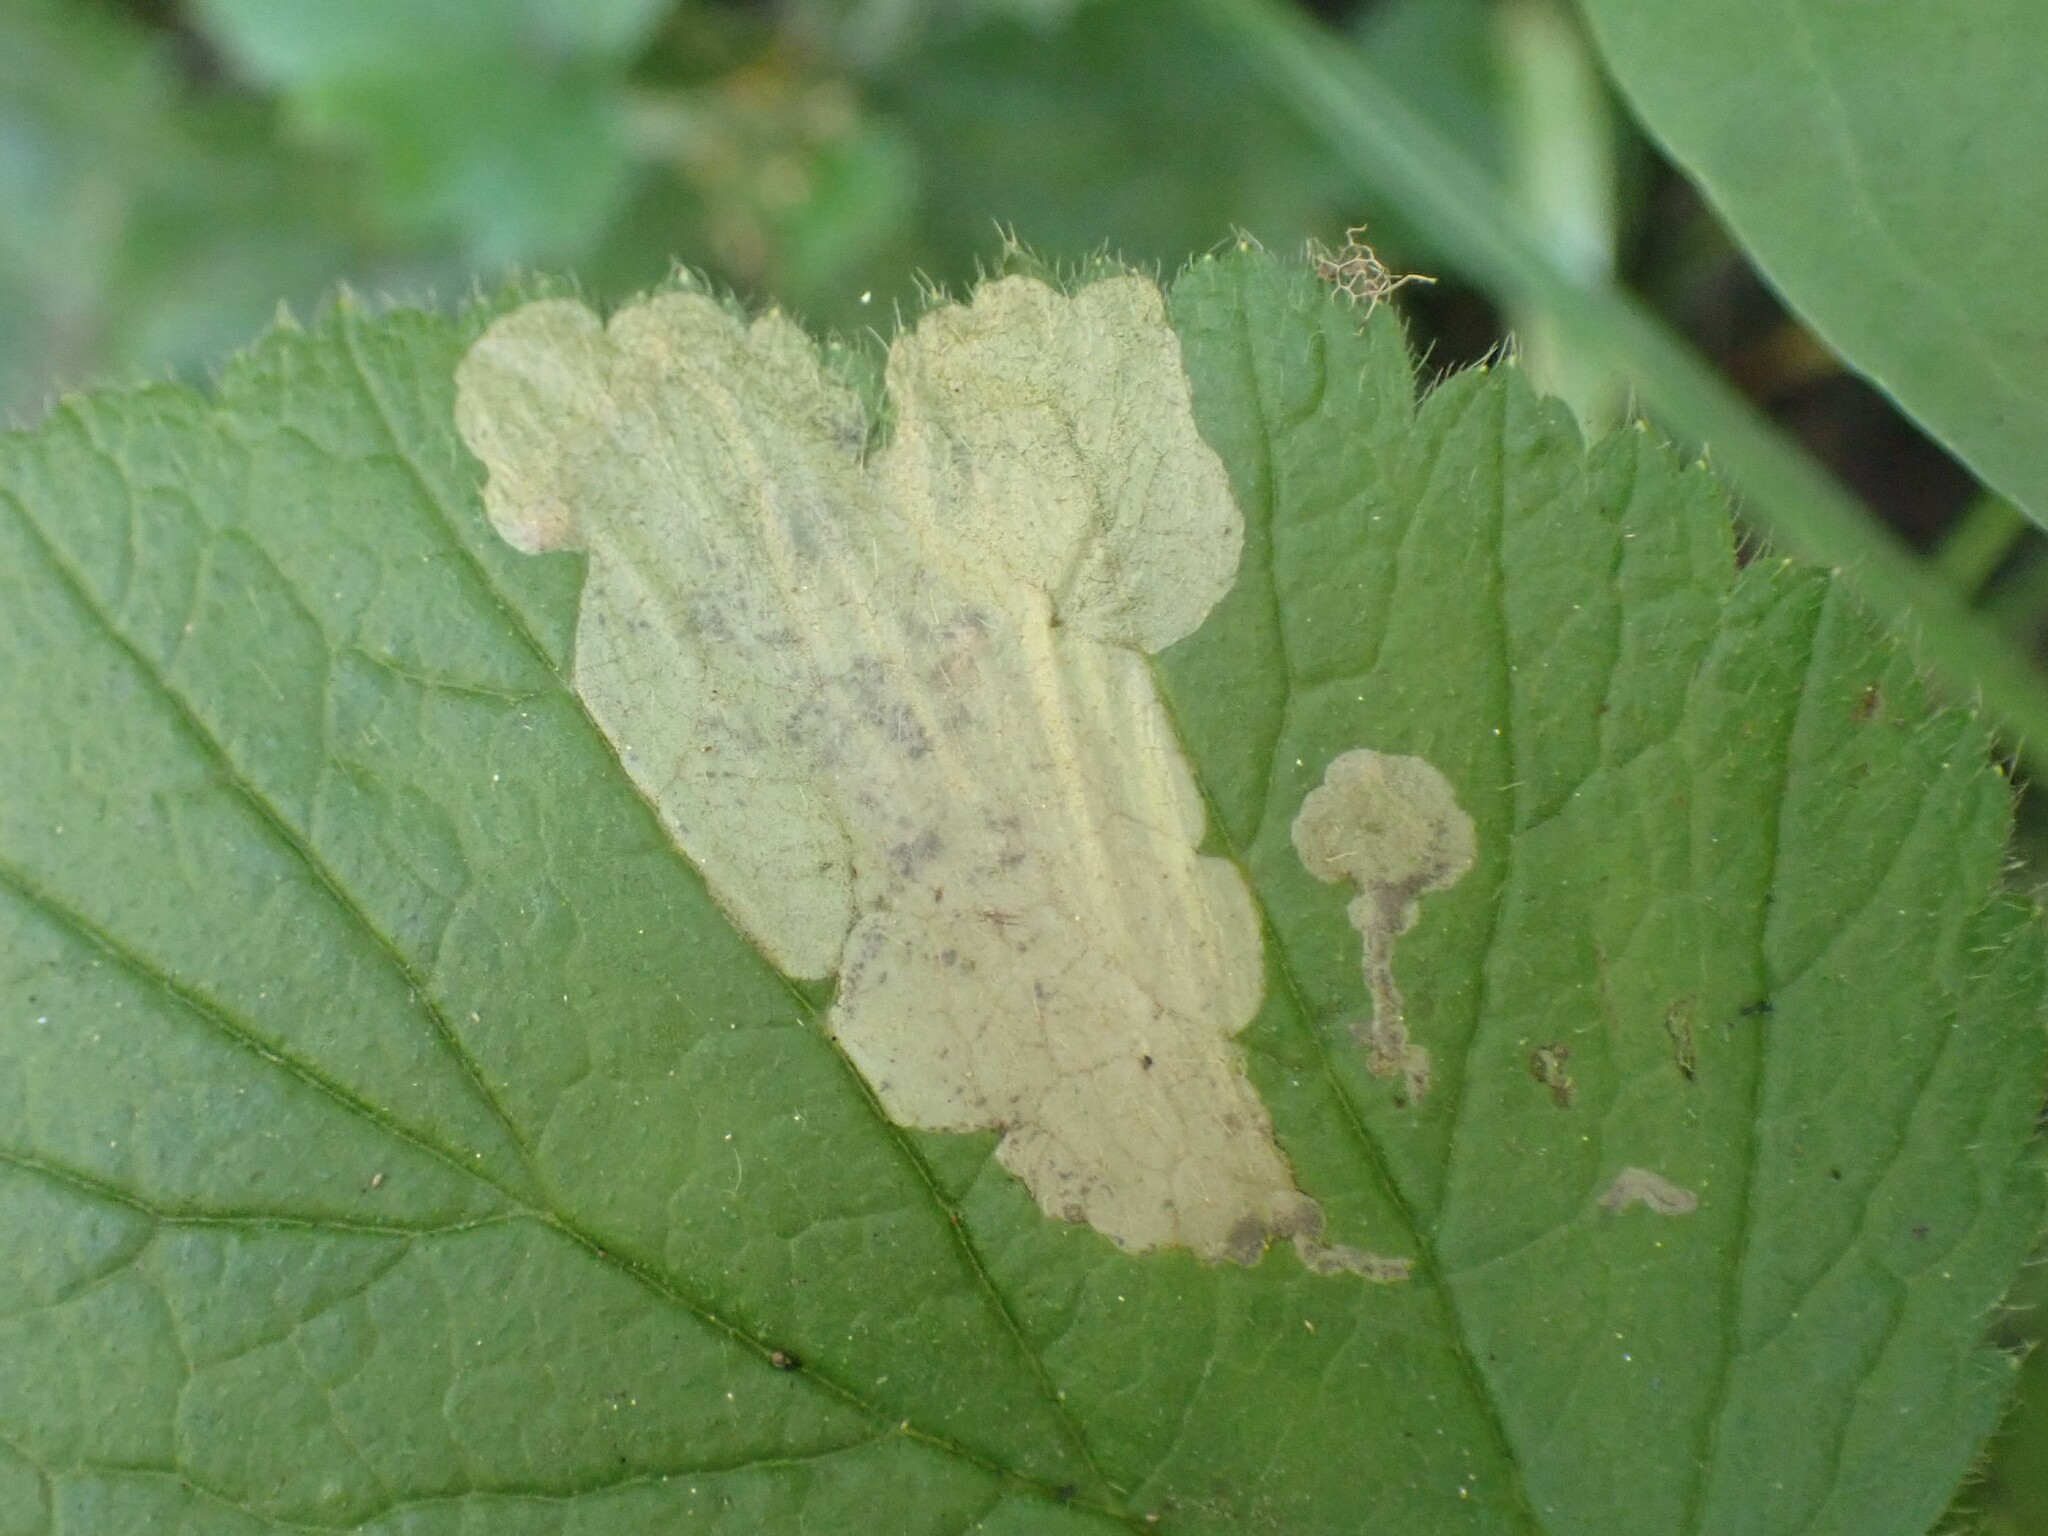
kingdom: Animalia
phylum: Arthropoda
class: Insecta
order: Hymenoptera
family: Tenthredinidae
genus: Metallus
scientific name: Metallus lanceolatus
